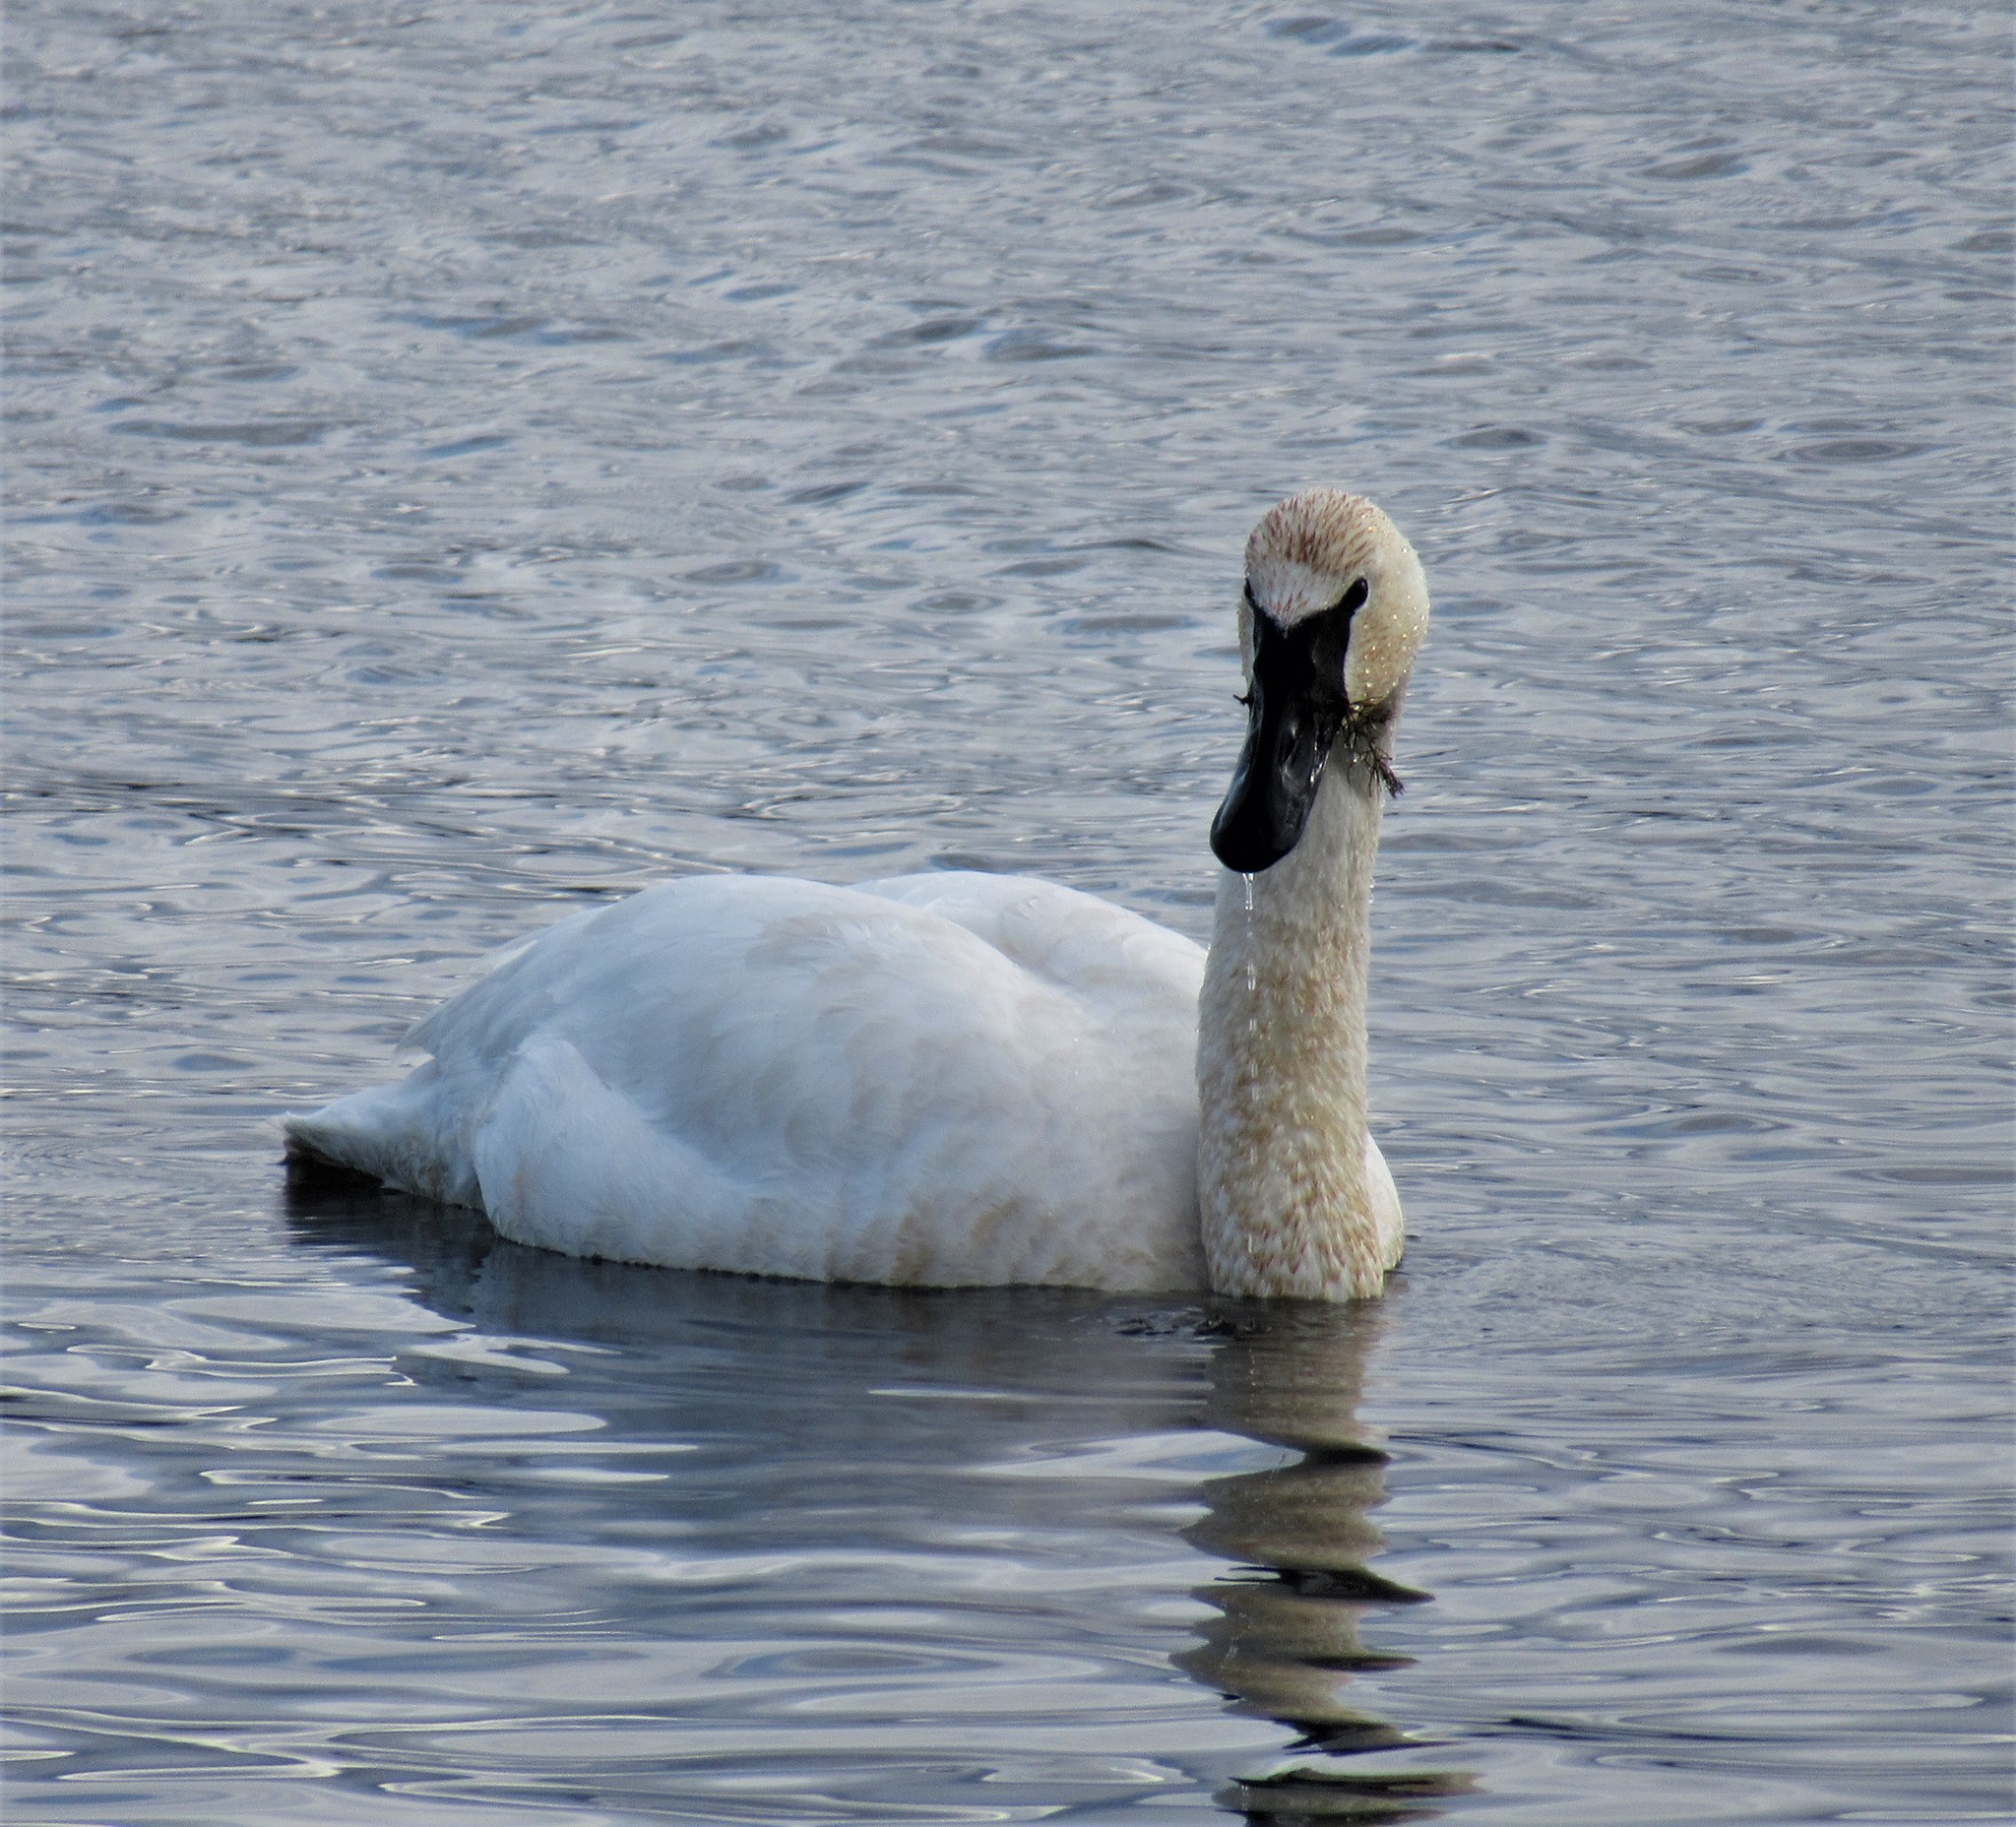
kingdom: Animalia
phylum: Chordata
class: Aves
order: Anseriformes
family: Anatidae
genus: Cygnus
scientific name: Cygnus buccinator
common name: Trumpeter swan
